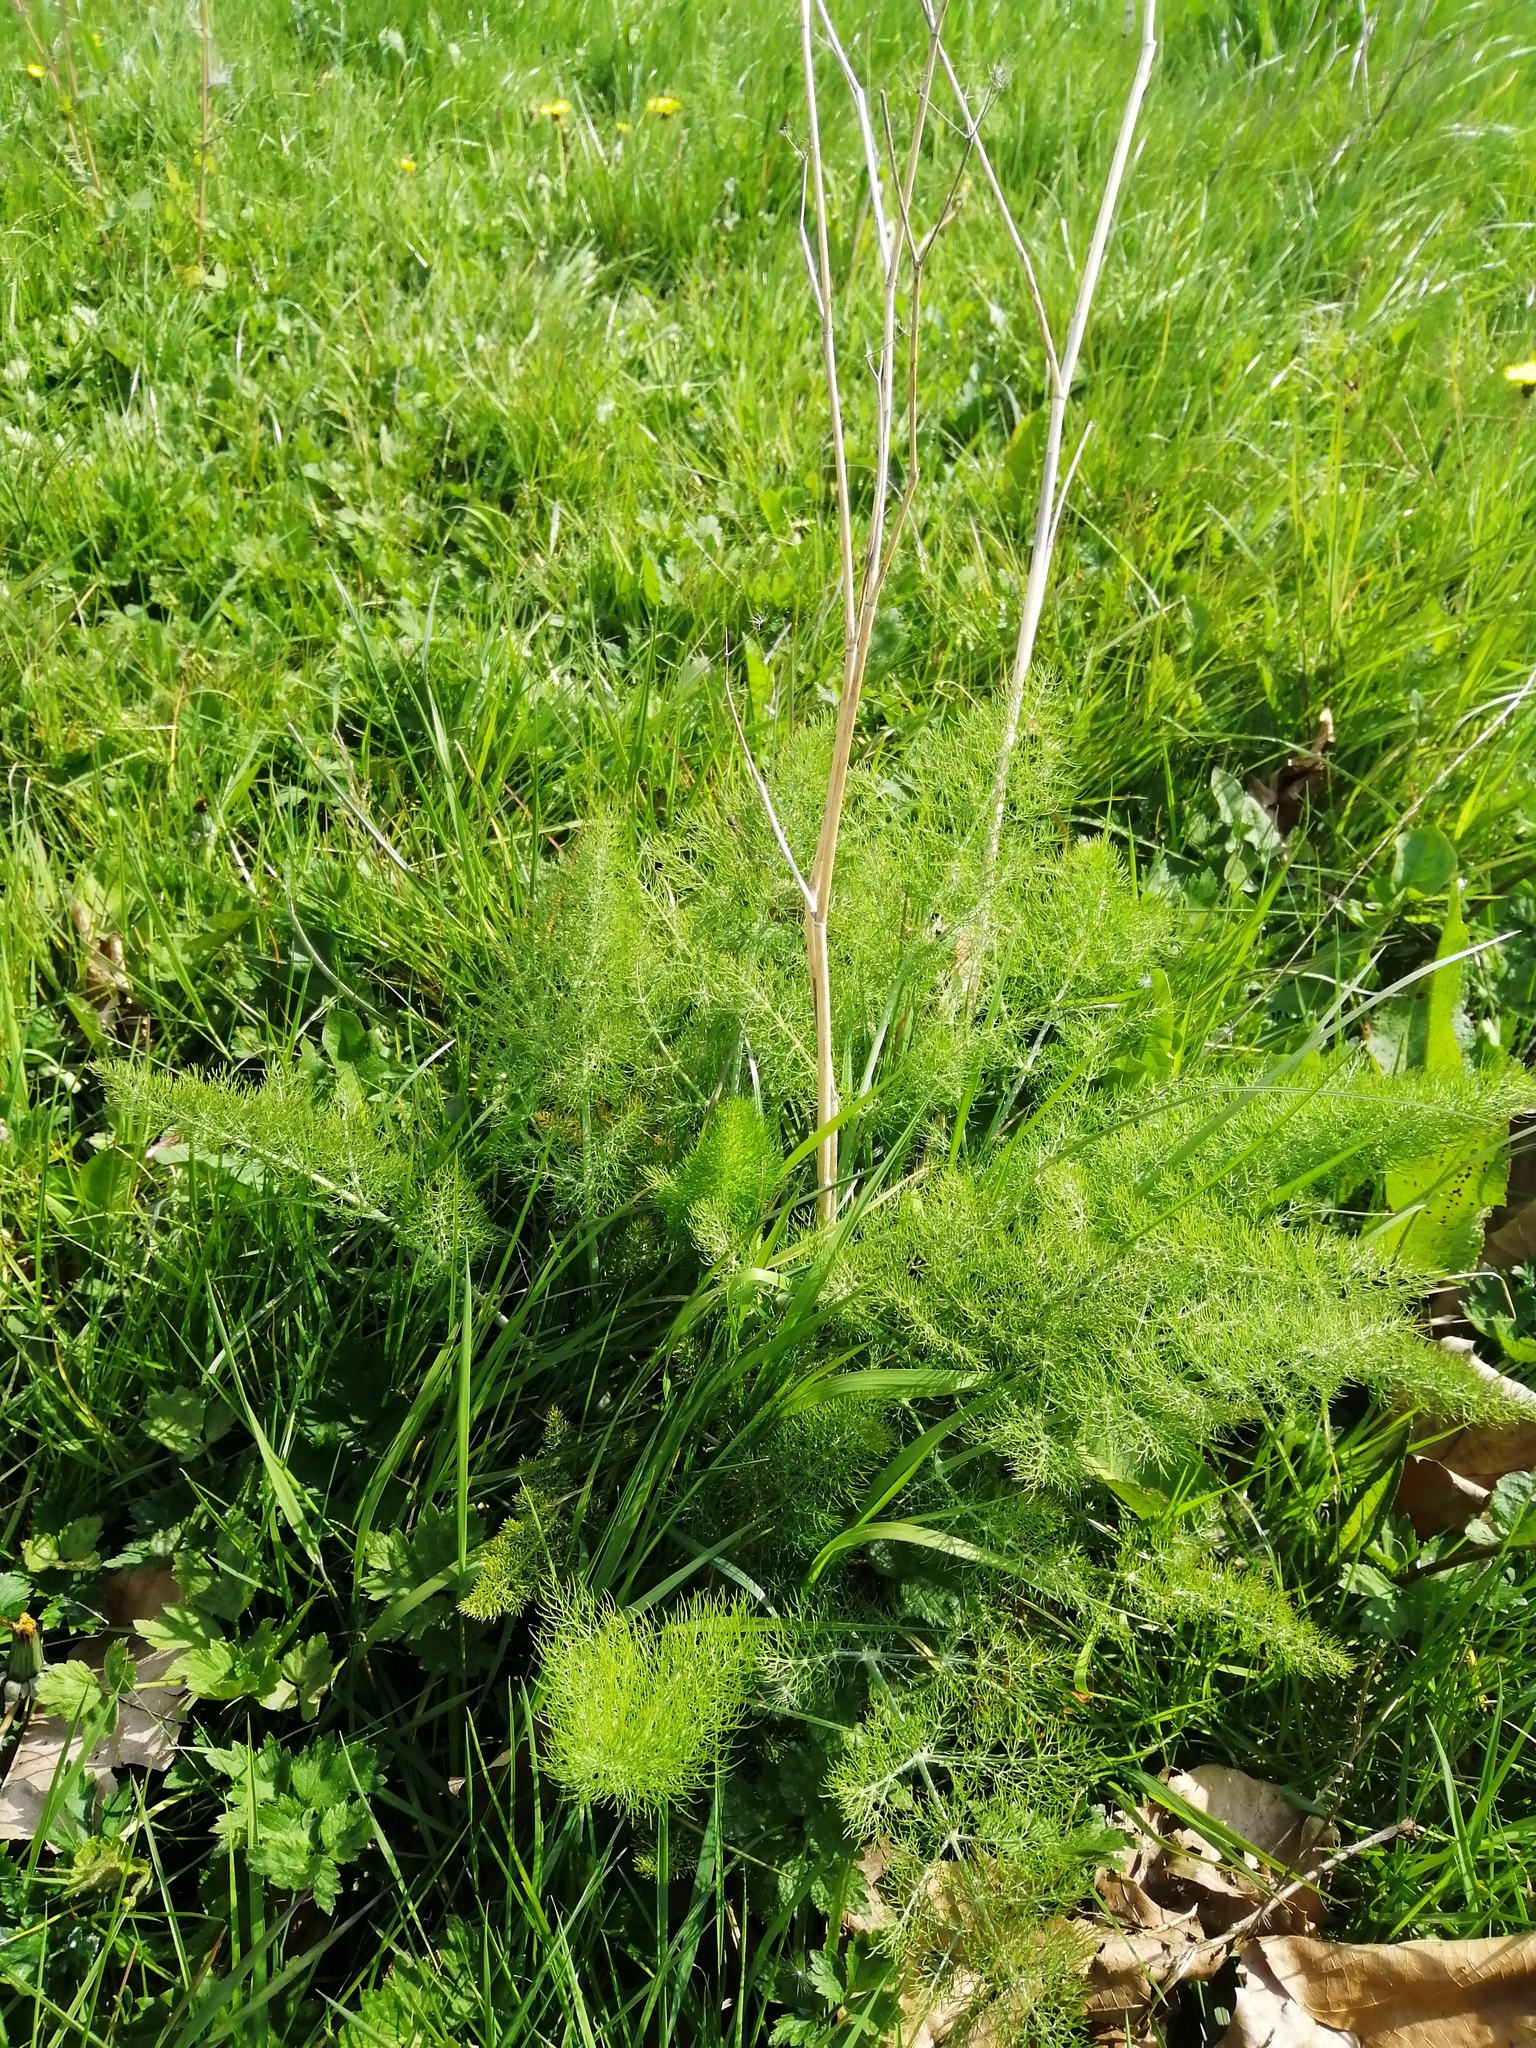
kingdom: Plantae
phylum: Tracheophyta
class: Magnoliopsida
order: Apiales
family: Apiaceae
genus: Foeniculum
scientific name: Foeniculum vulgare
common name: Fennel
